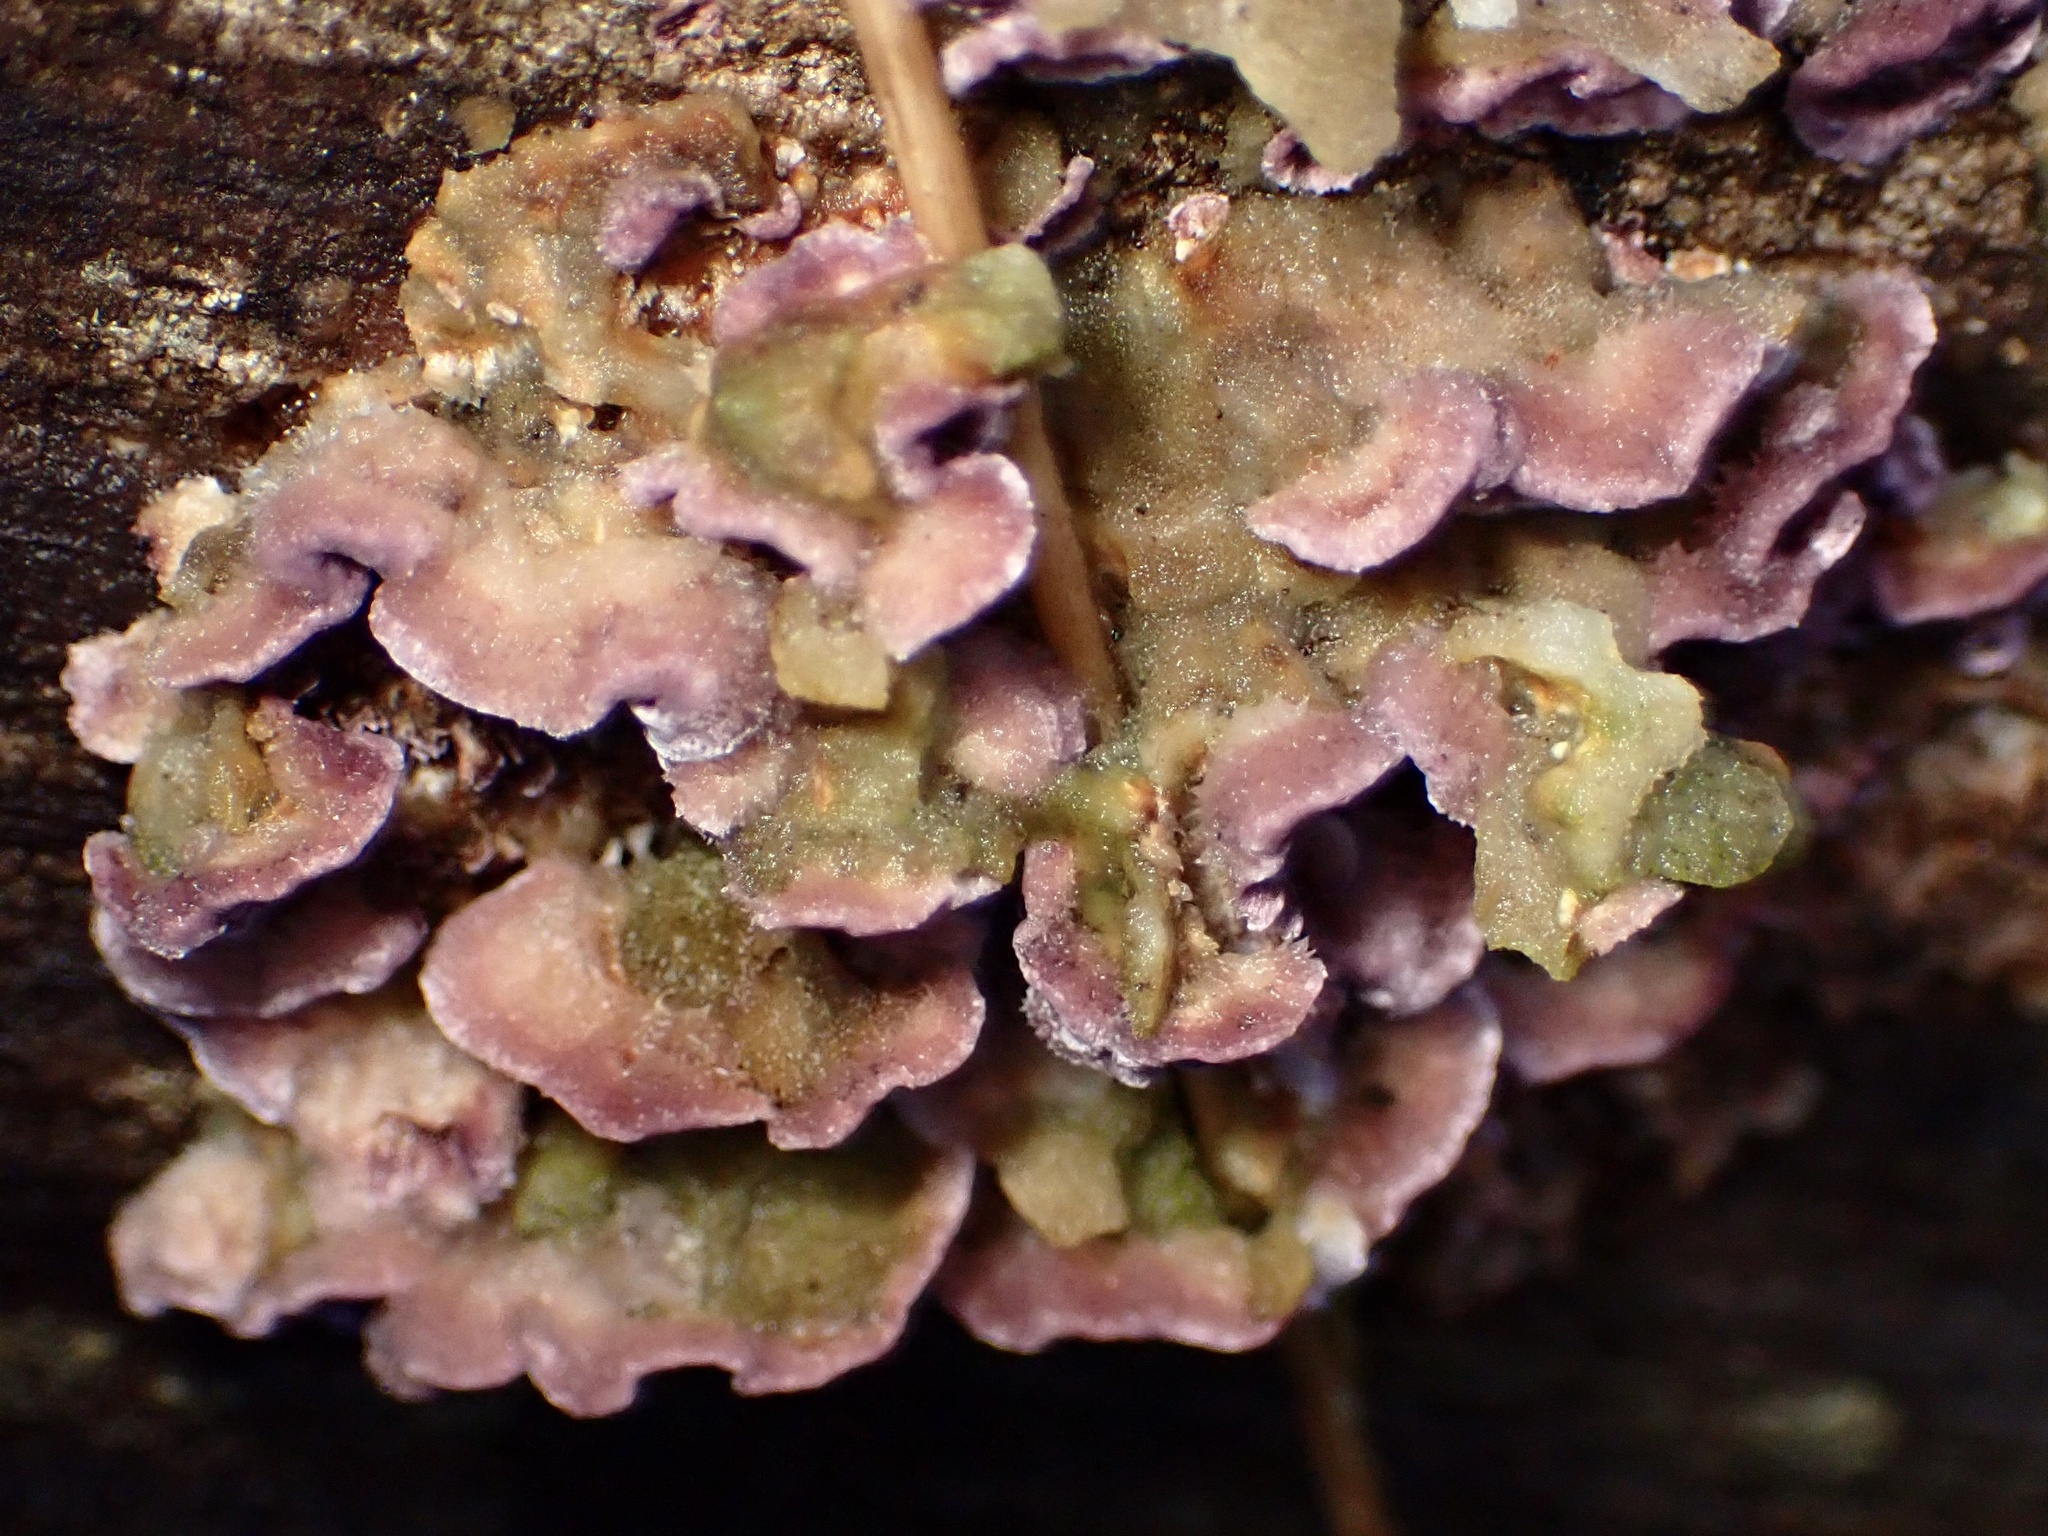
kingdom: Fungi
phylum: Basidiomycota
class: Agaricomycetes
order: Hymenochaetales
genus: Trichaptum
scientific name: Trichaptum abietinum
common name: Purplepore bracket
